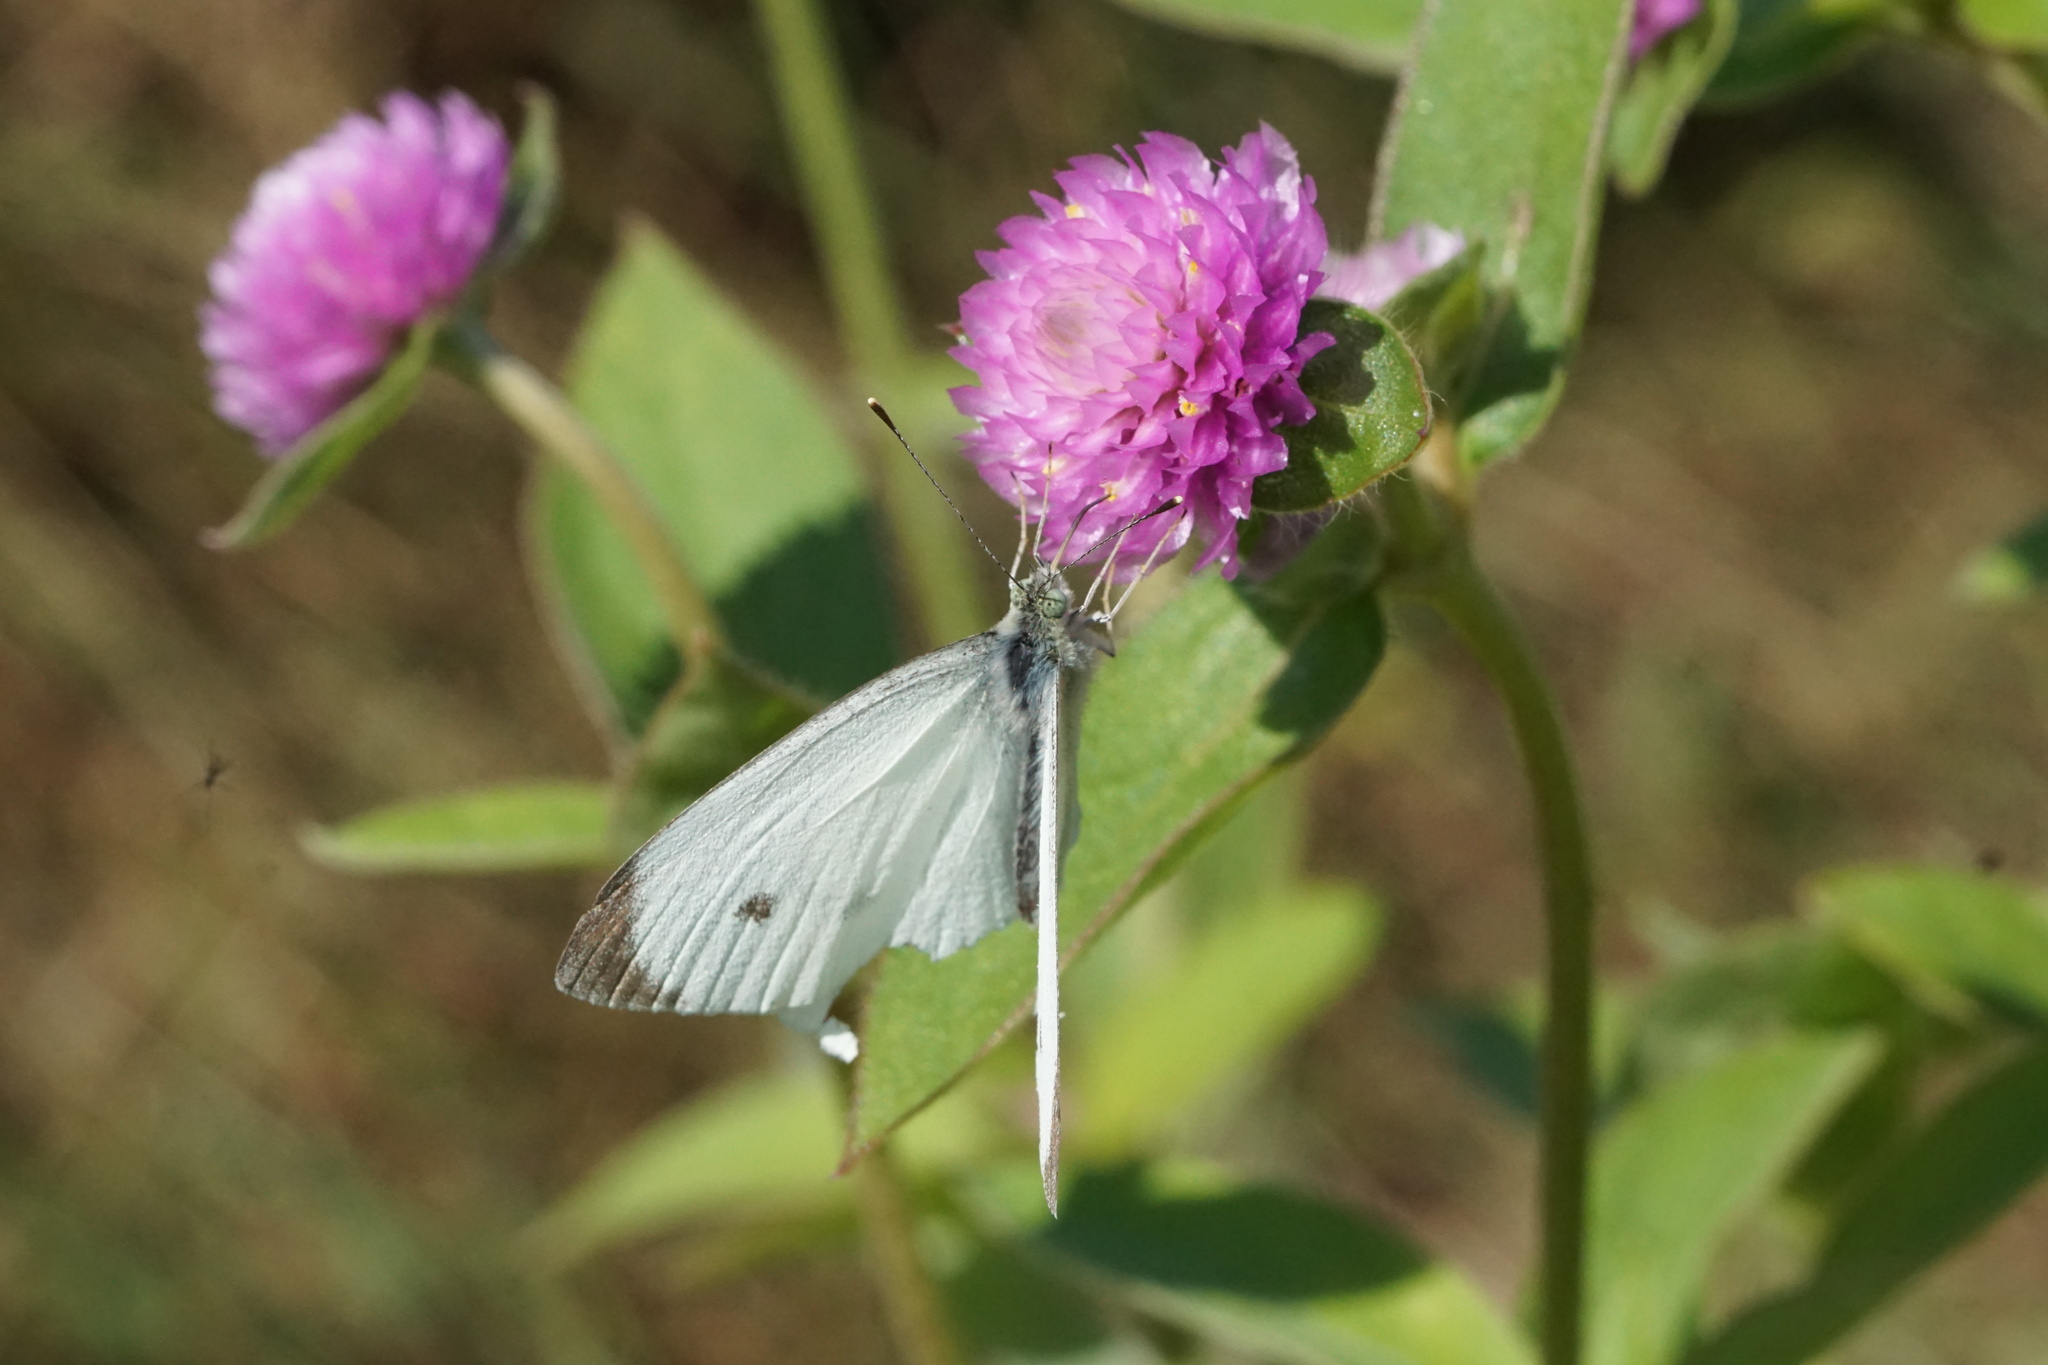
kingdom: Animalia
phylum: Arthropoda
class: Insecta
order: Lepidoptera
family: Pieridae
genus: Pieris
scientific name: Pieris rapae
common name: Small white
